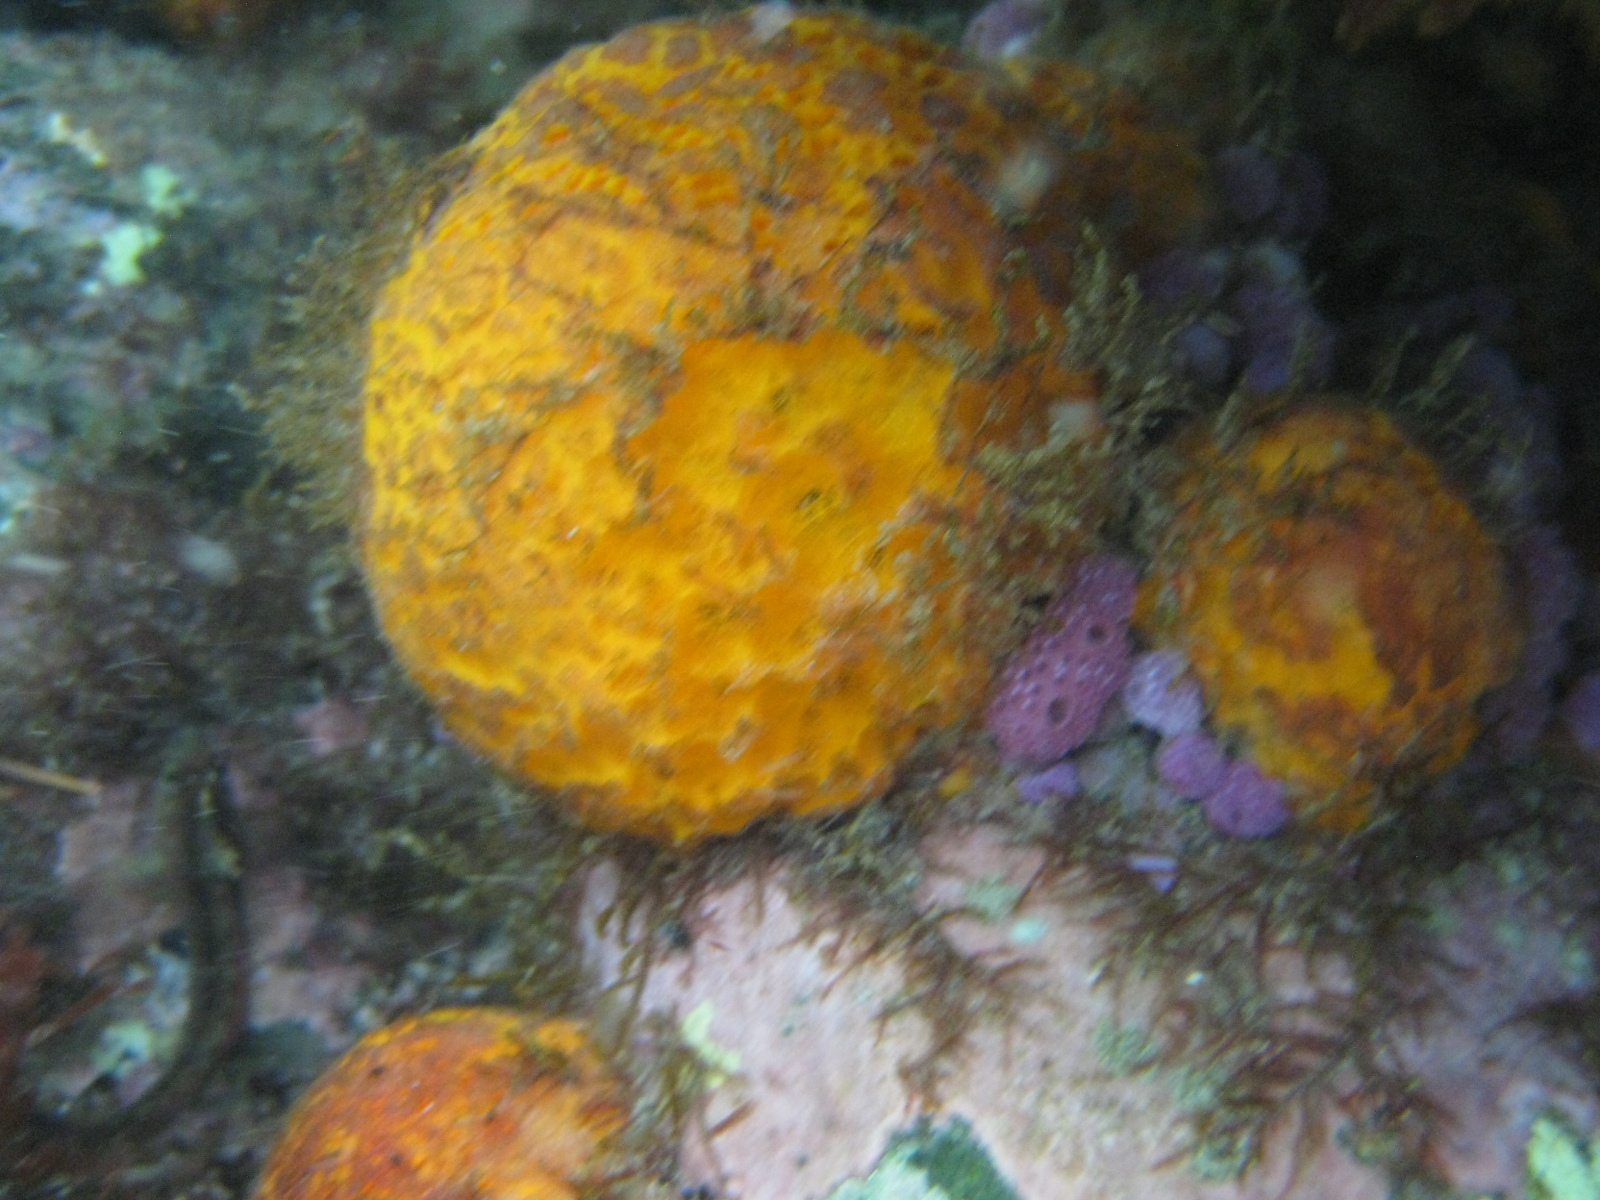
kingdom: Animalia
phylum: Porifera
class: Demospongiae
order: Tethyida
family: Tethyidae
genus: Tethya
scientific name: Tethya burtoni
